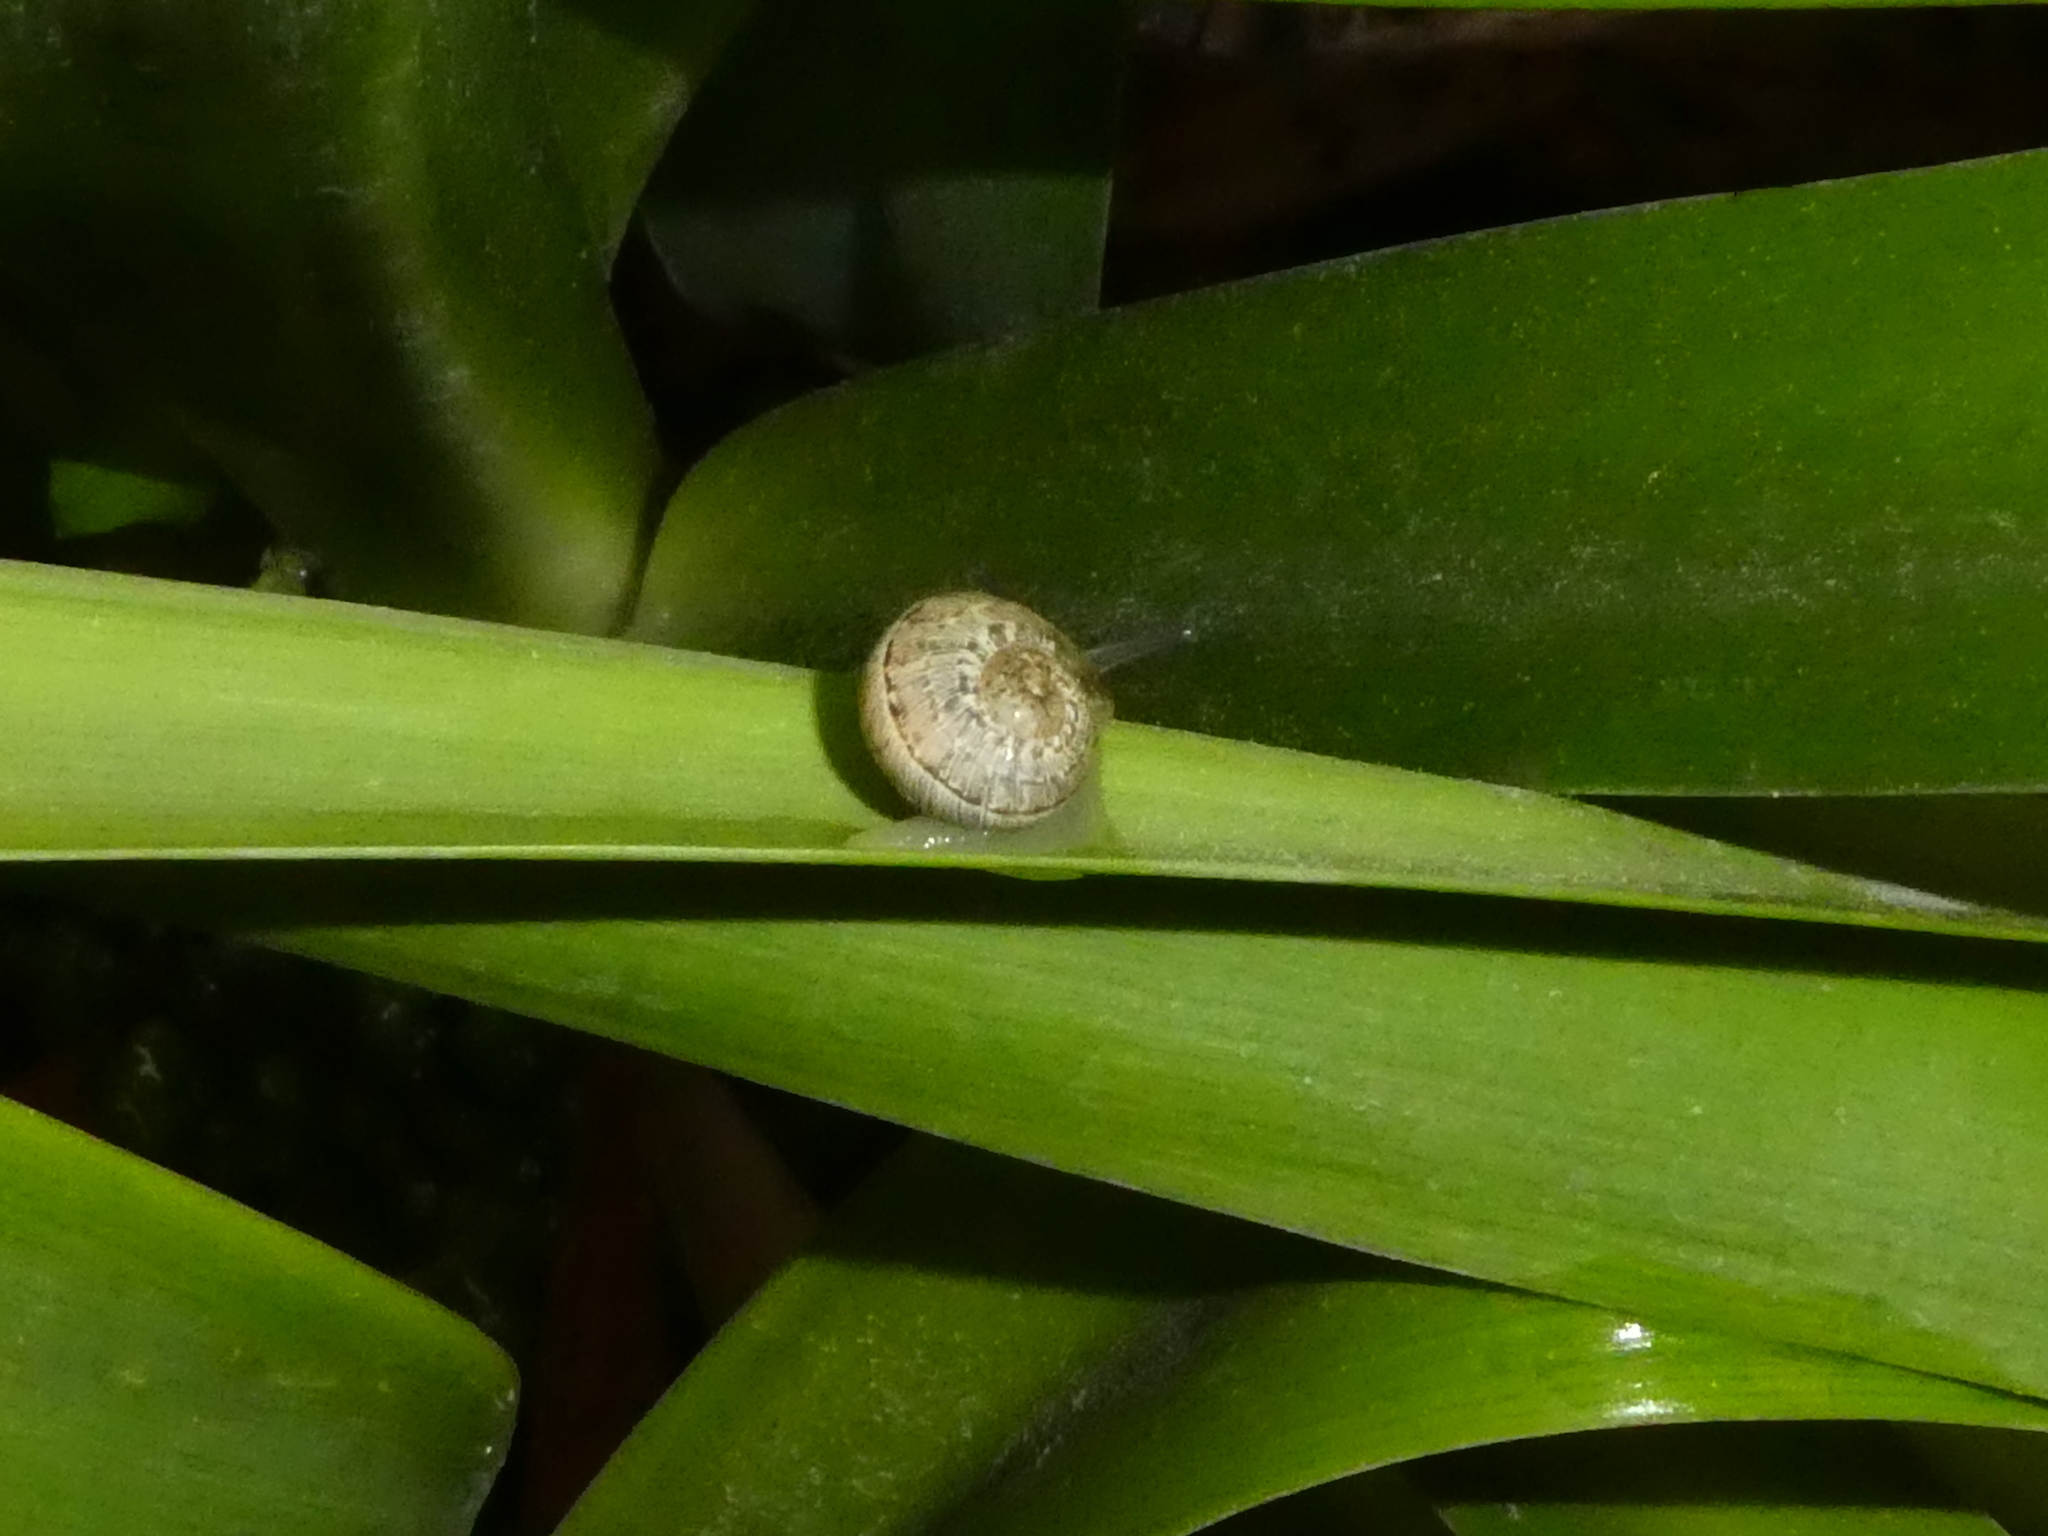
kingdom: Animalia
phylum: Mollusca
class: Gastropoda
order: Stylommatophora
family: Helicidae
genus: Cornu
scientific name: Cornu aspersum
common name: Brown garden snail
